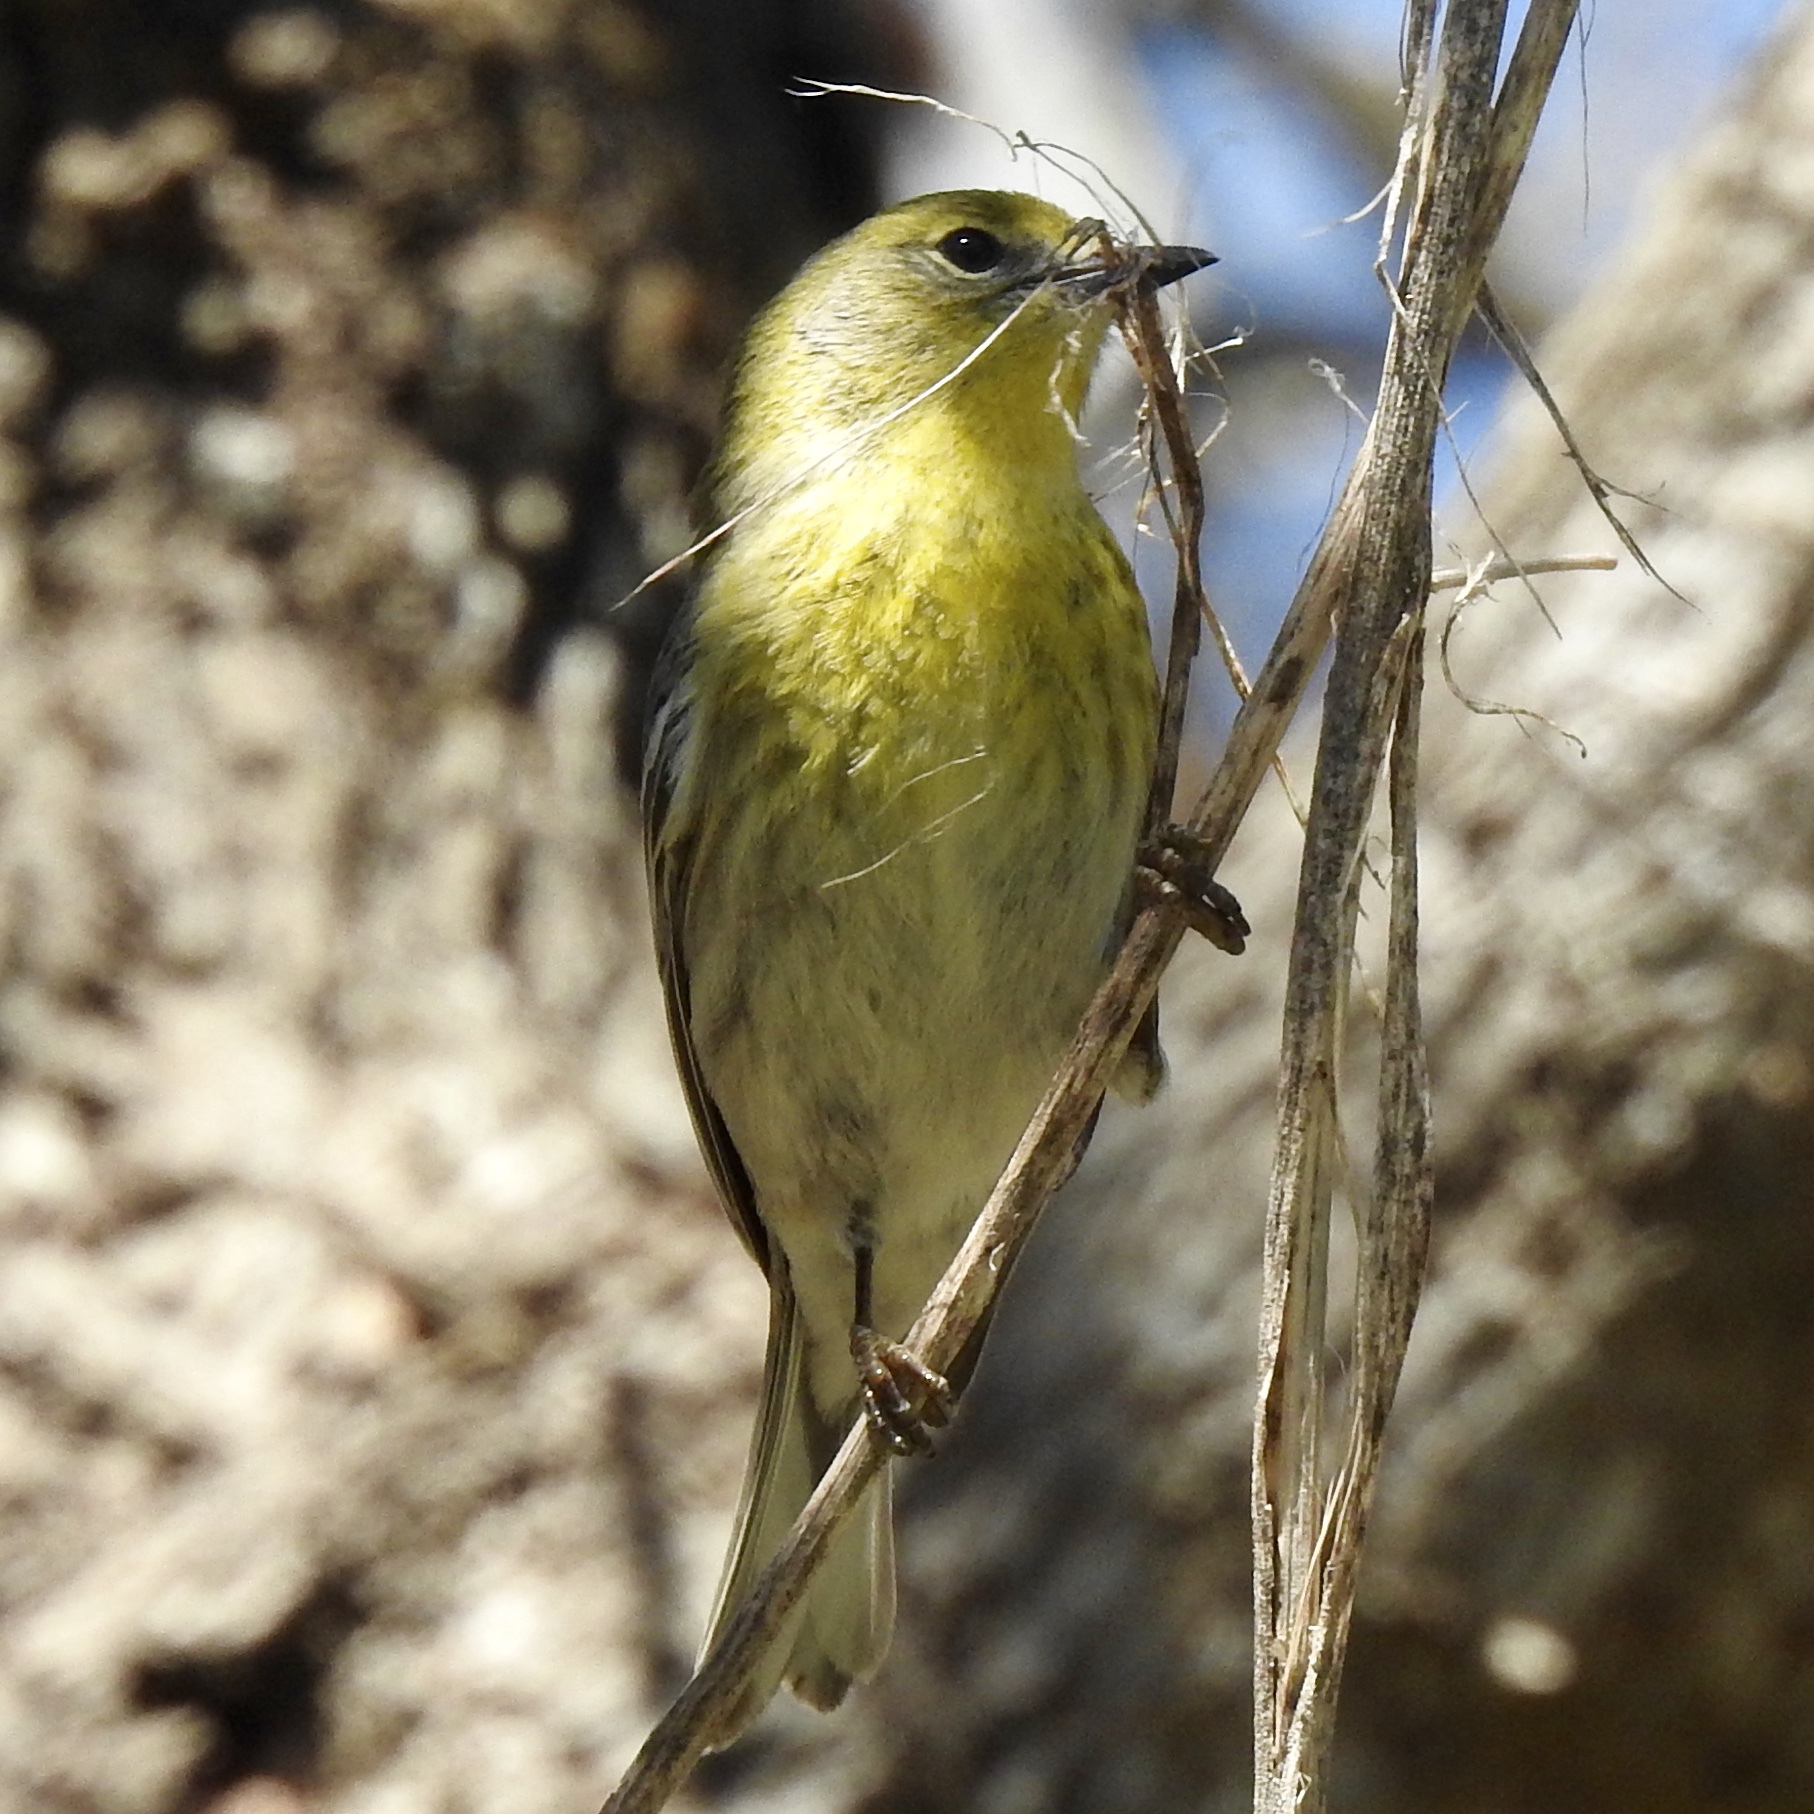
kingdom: Animalia
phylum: Chordata
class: Aves
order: Passeriformes
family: Parulidae
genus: Setophaga
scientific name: Setophaga pinus
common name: Pine warbler
